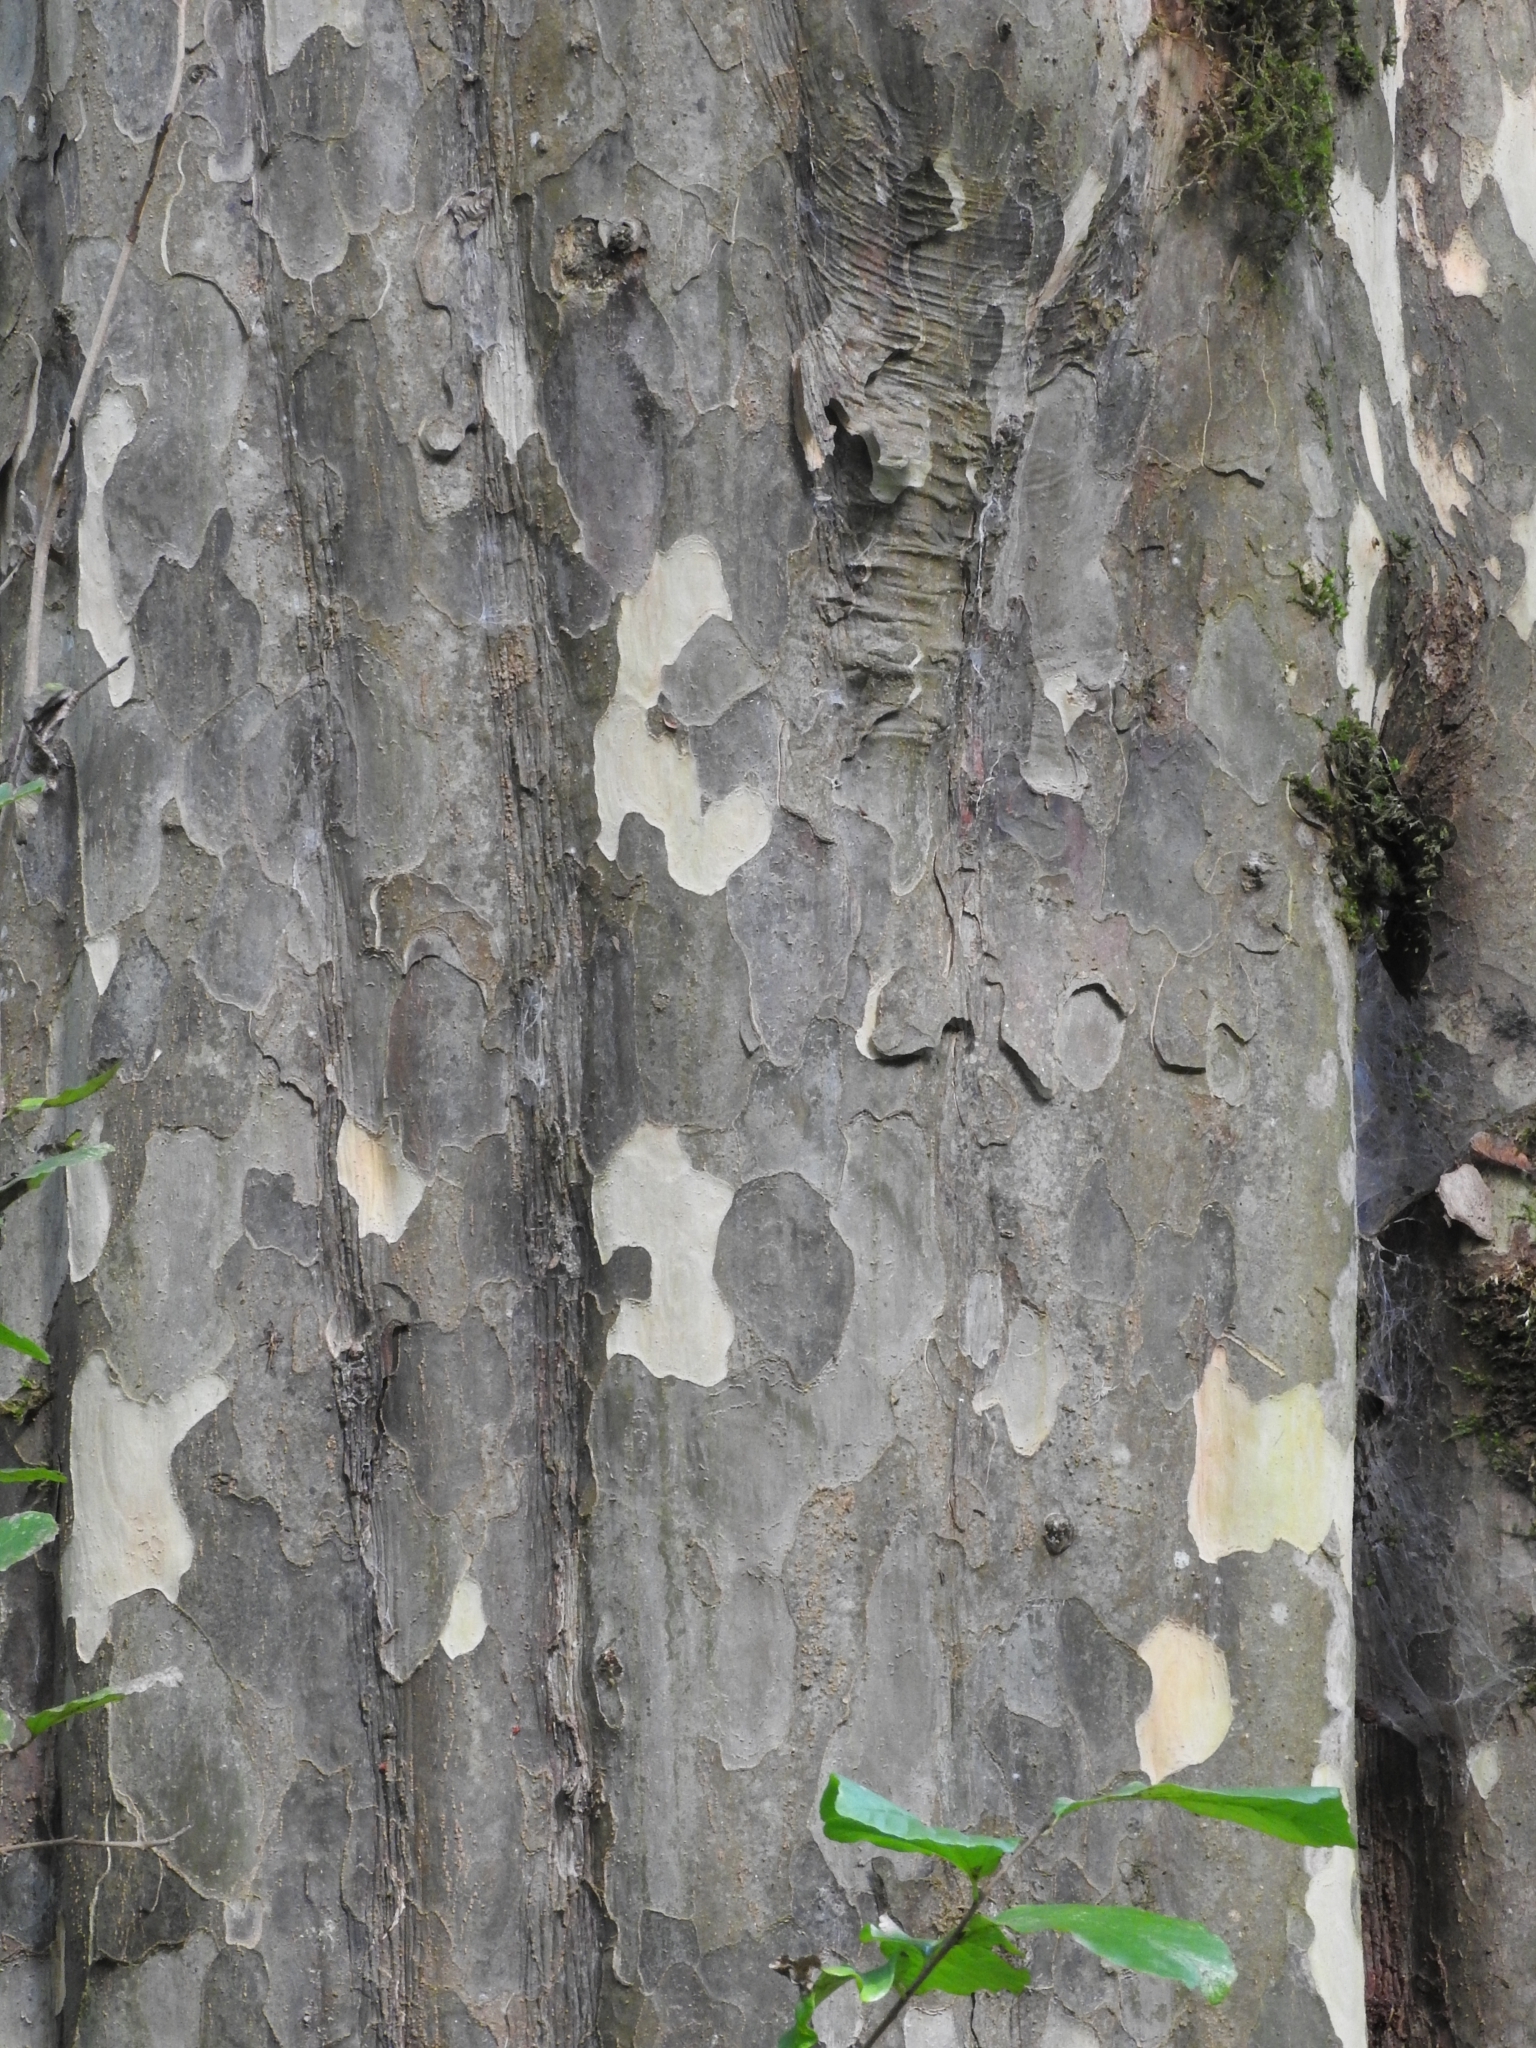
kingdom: Plantae
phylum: Tracheophyta
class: Magnoliopsida
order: Saxifragales
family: Hamamelidaceae
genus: Parrotia
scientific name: Parrotia persica
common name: Persian ironwood
